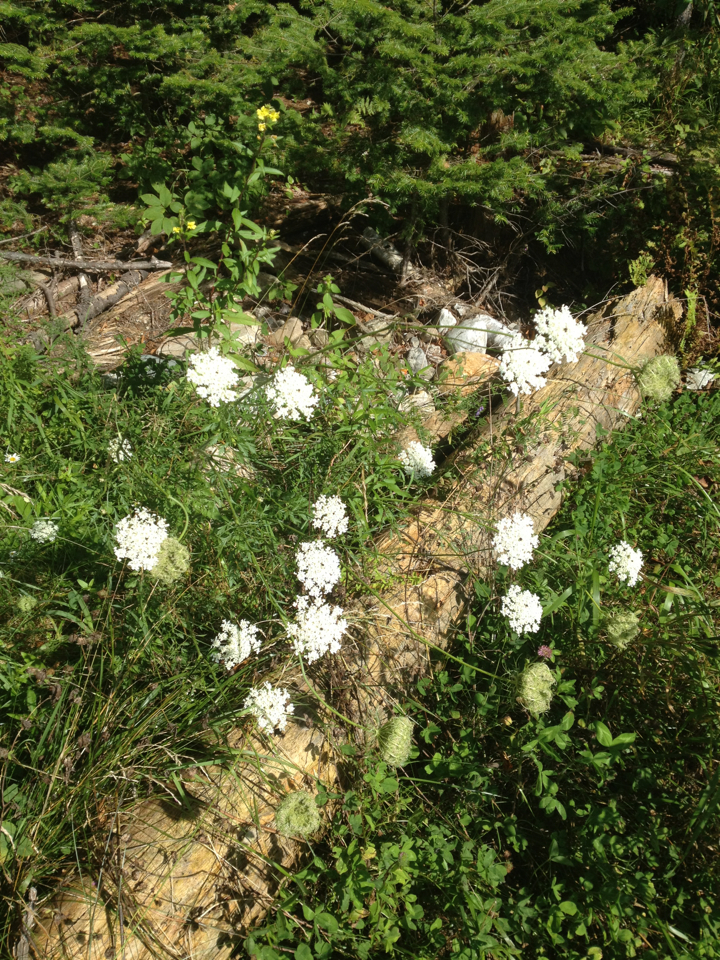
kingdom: Plantae
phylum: Tracheophyta
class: Magnoliopsida
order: Apiales
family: Apiaceae
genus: Daucus
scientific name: Daucus carota
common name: Wild carrot
